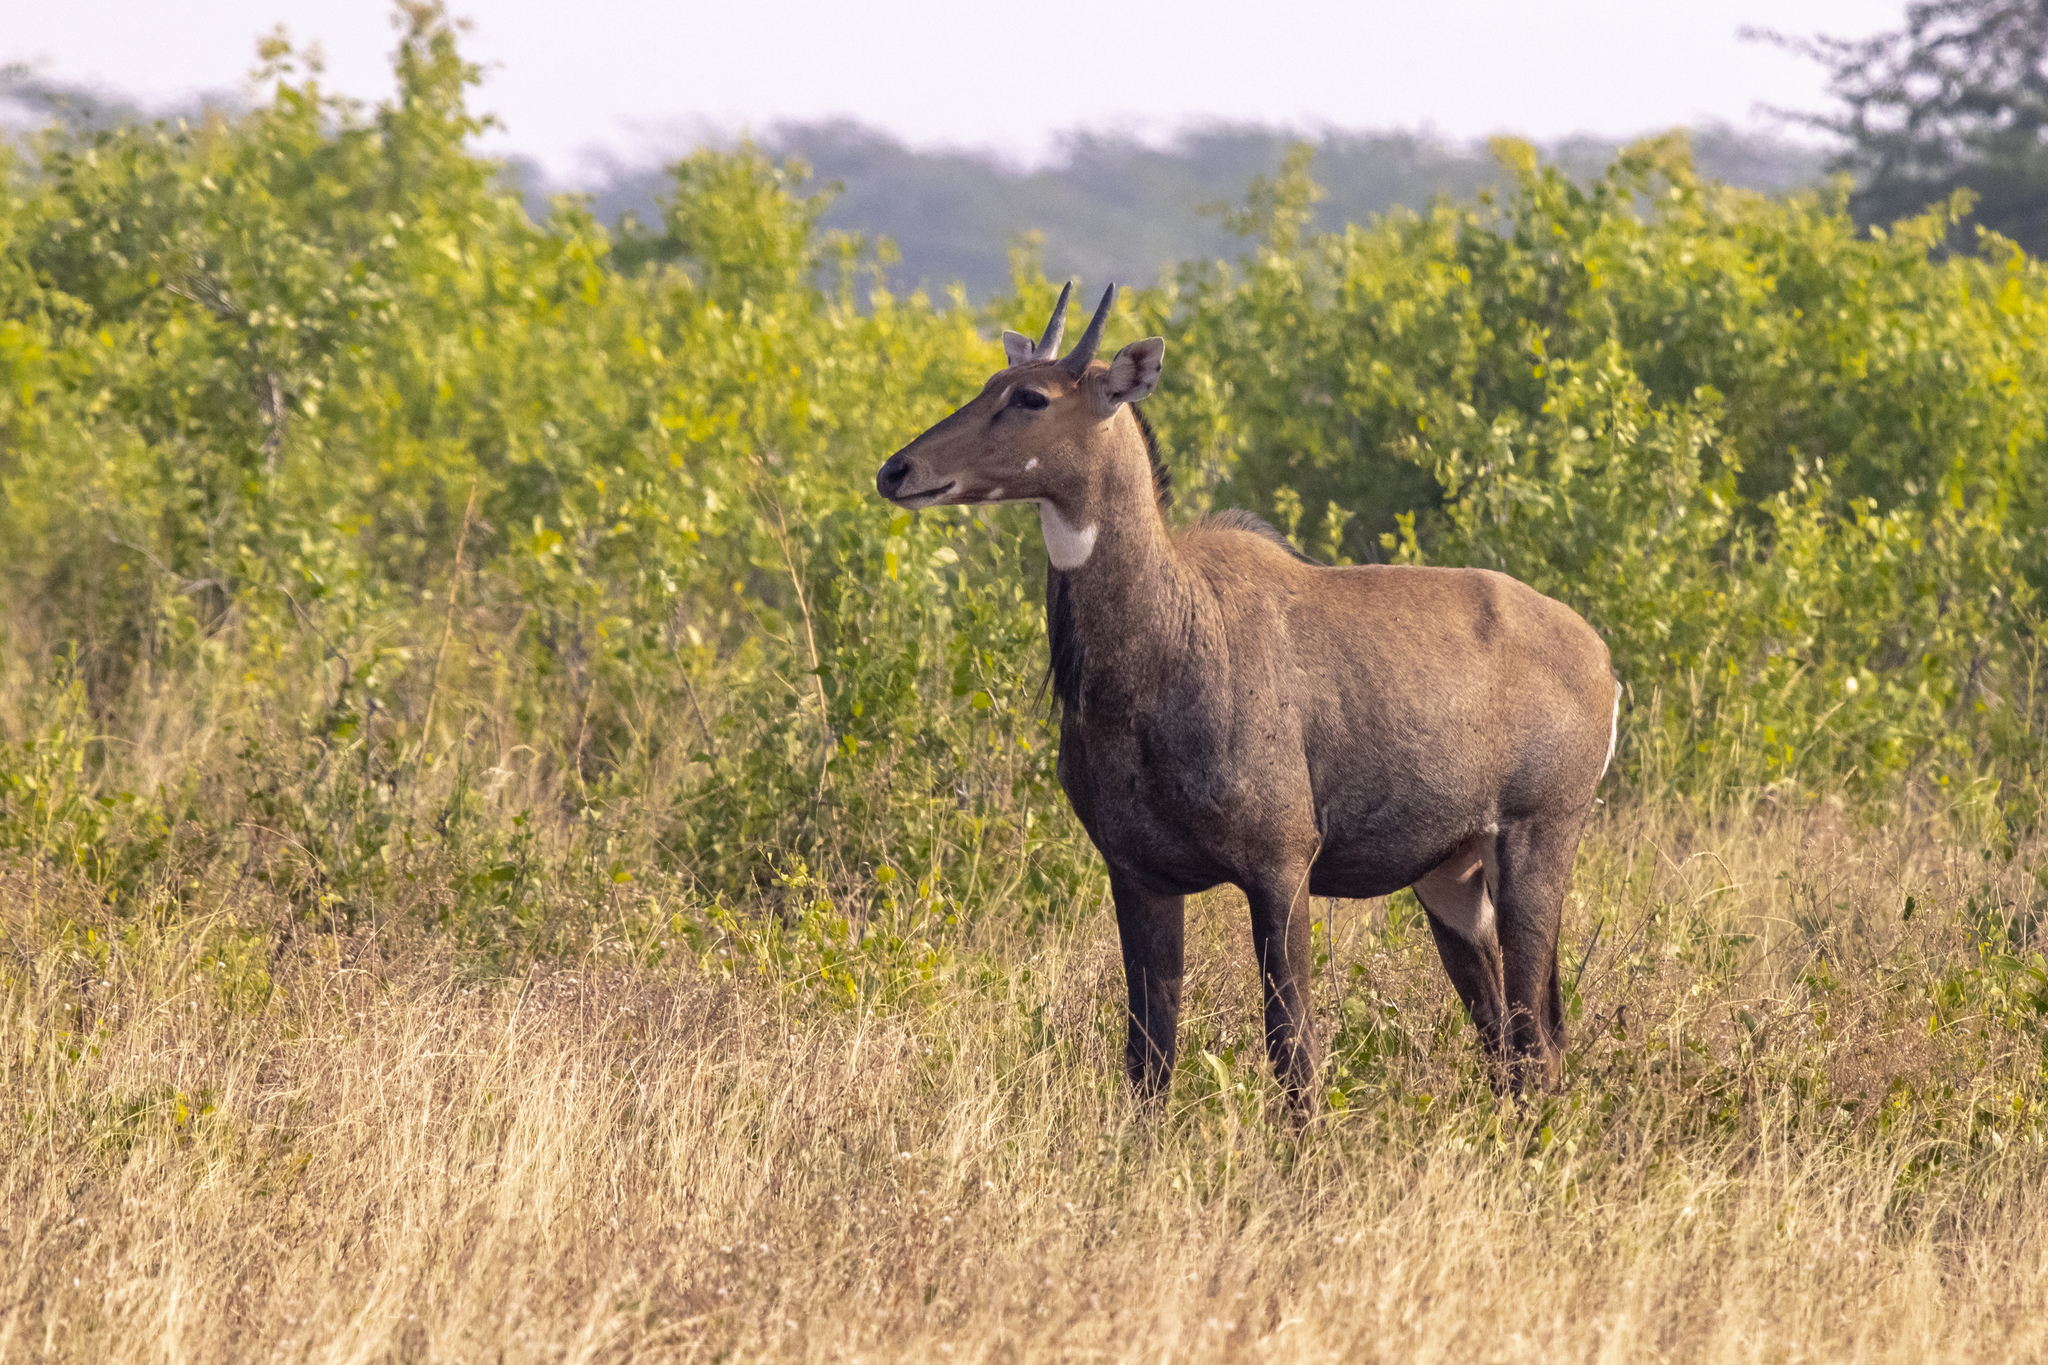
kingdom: Animalia
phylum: Chordata
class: Mammalia
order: Artiodactyla
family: Bovidae
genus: Boselaphus
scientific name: Boselaphus tragocamelus
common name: Nilgai
